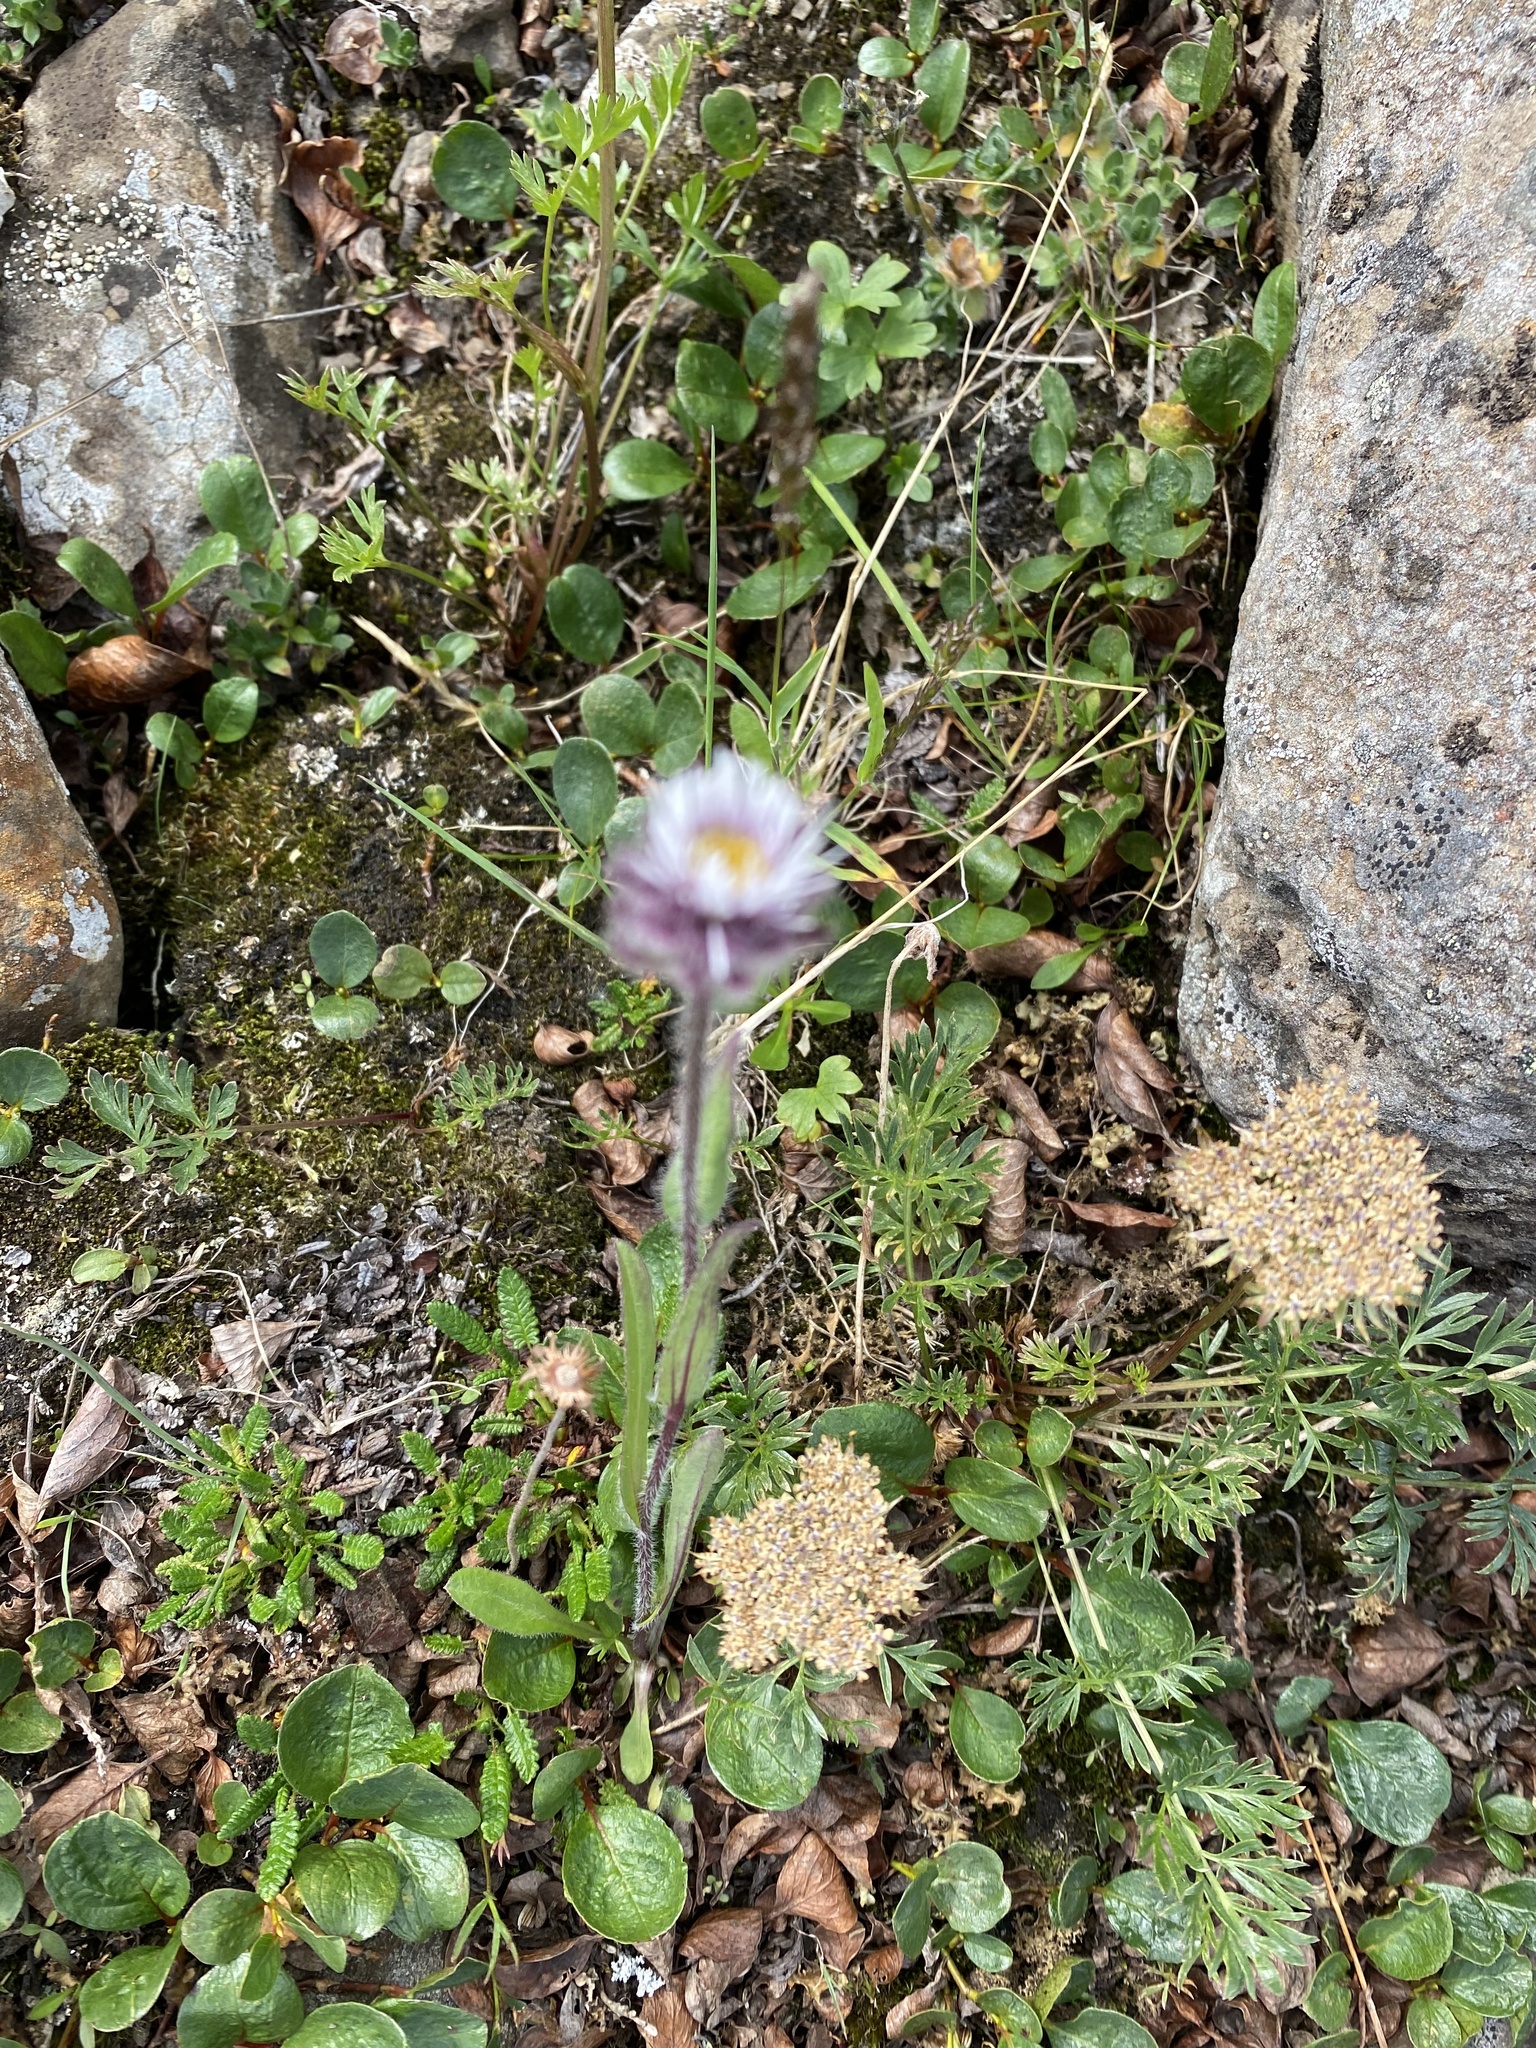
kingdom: Plantae
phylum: Tracheophyta
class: Magnoliopsida
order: Asterales
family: Asteraceae
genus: Erigeron
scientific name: Erigeron eriocalyx
